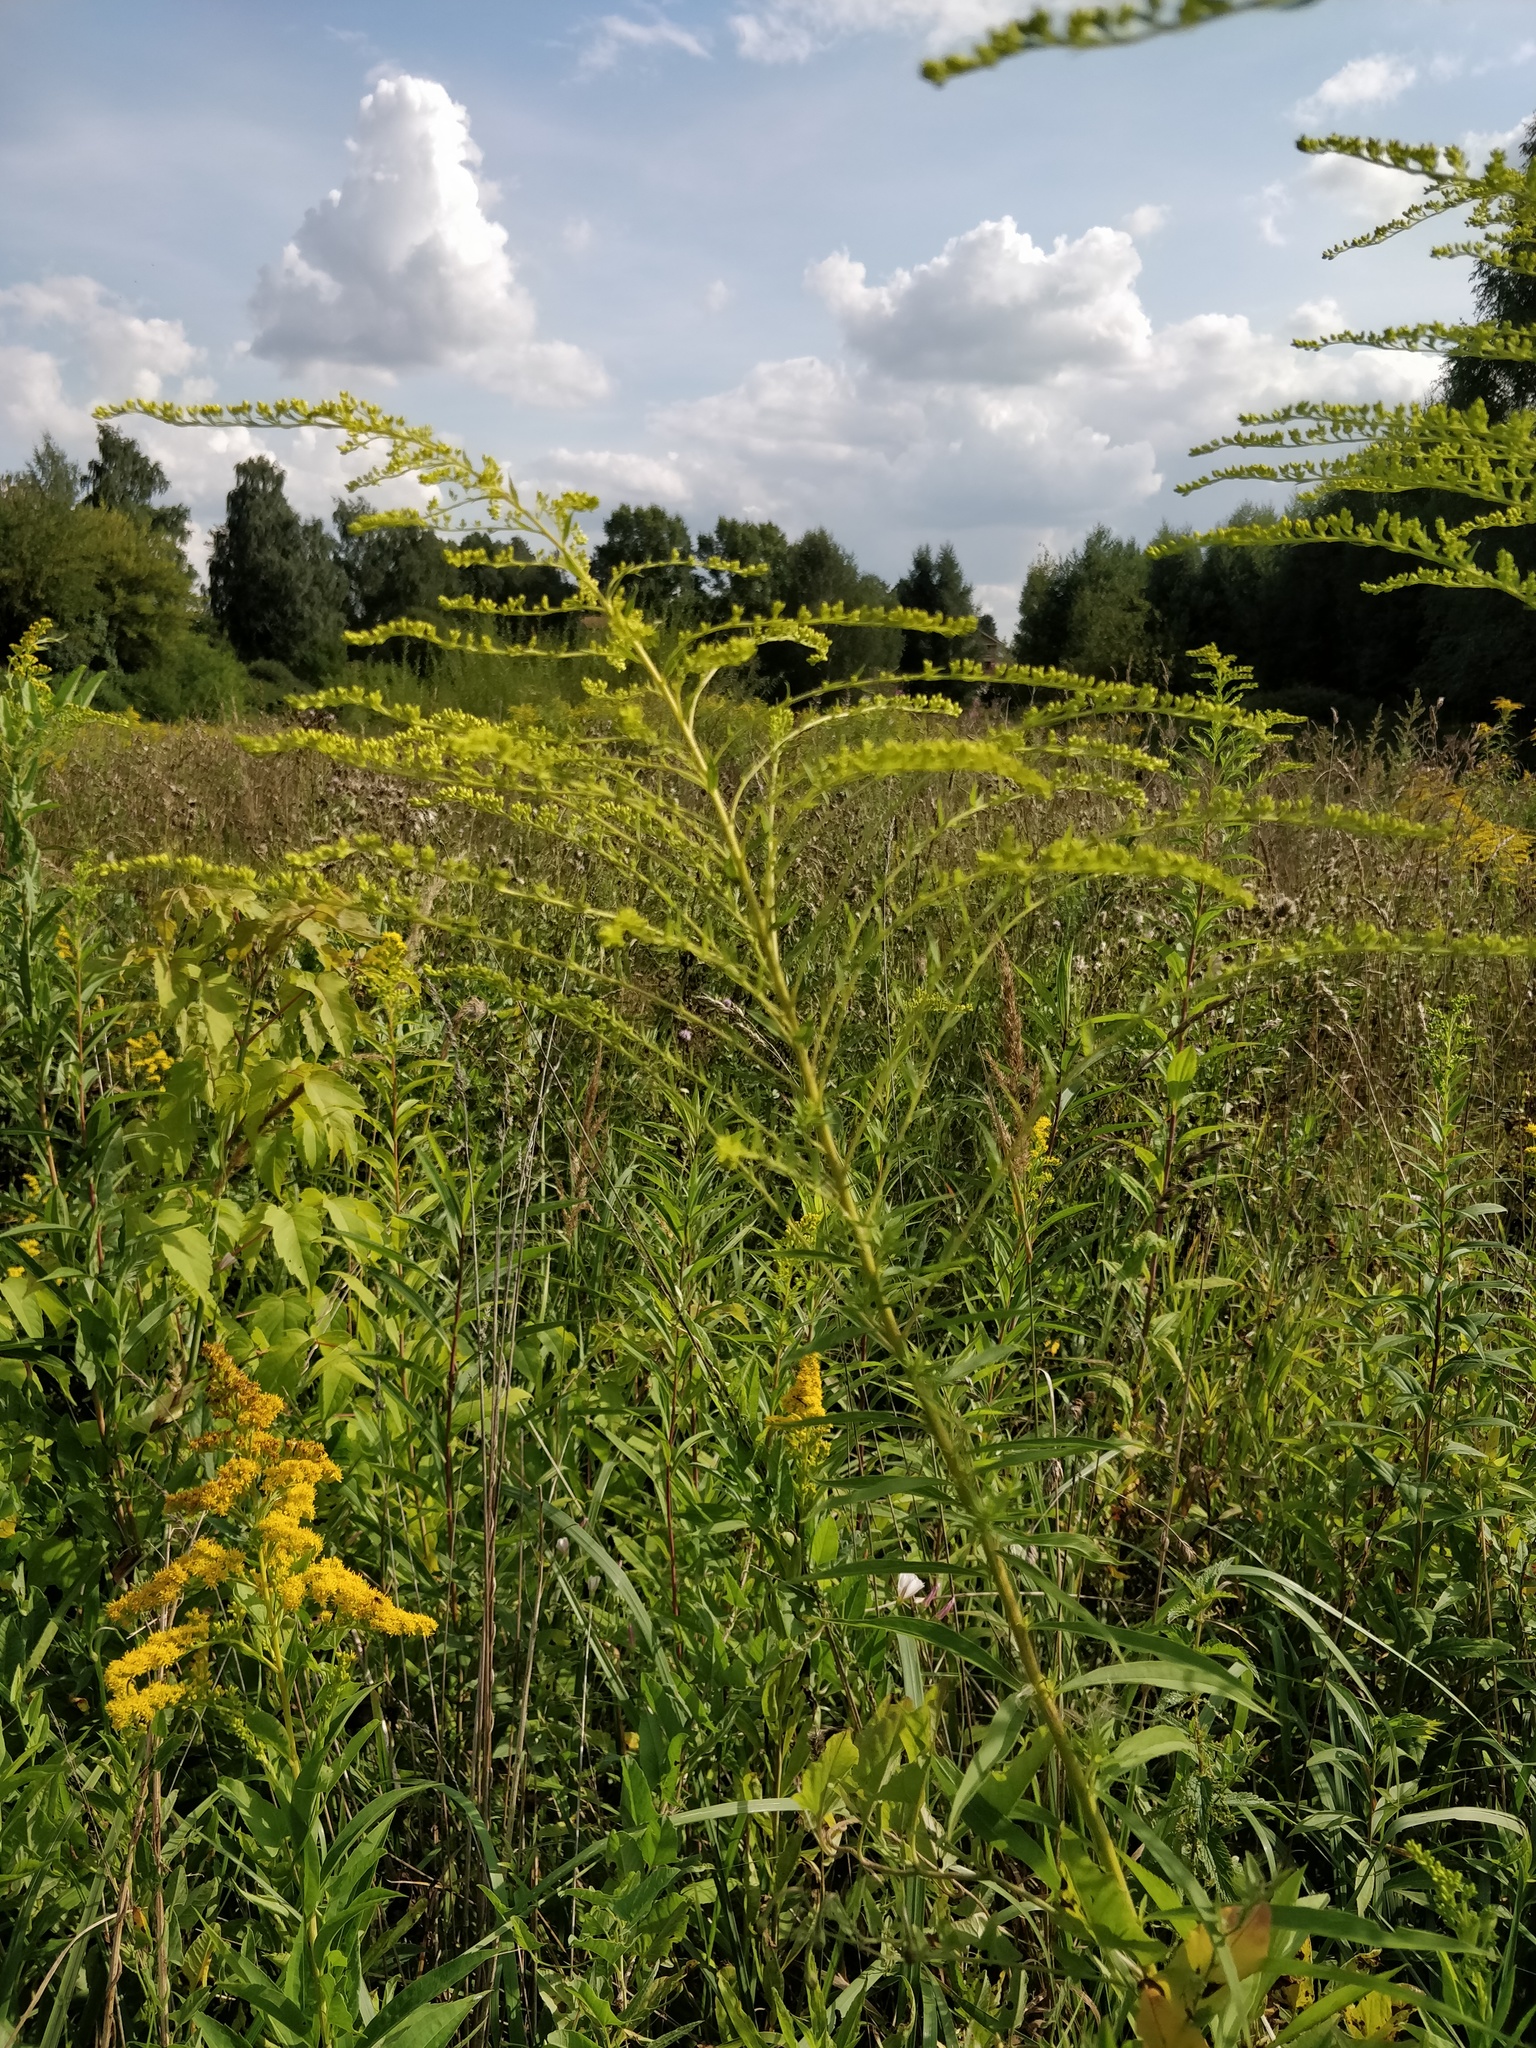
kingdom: Plantae
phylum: Tracheophyta
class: Magnoliopsida
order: Asterales
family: Asteraceae
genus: Solidago
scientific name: Solidago canadensis
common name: Canada goldenrod
